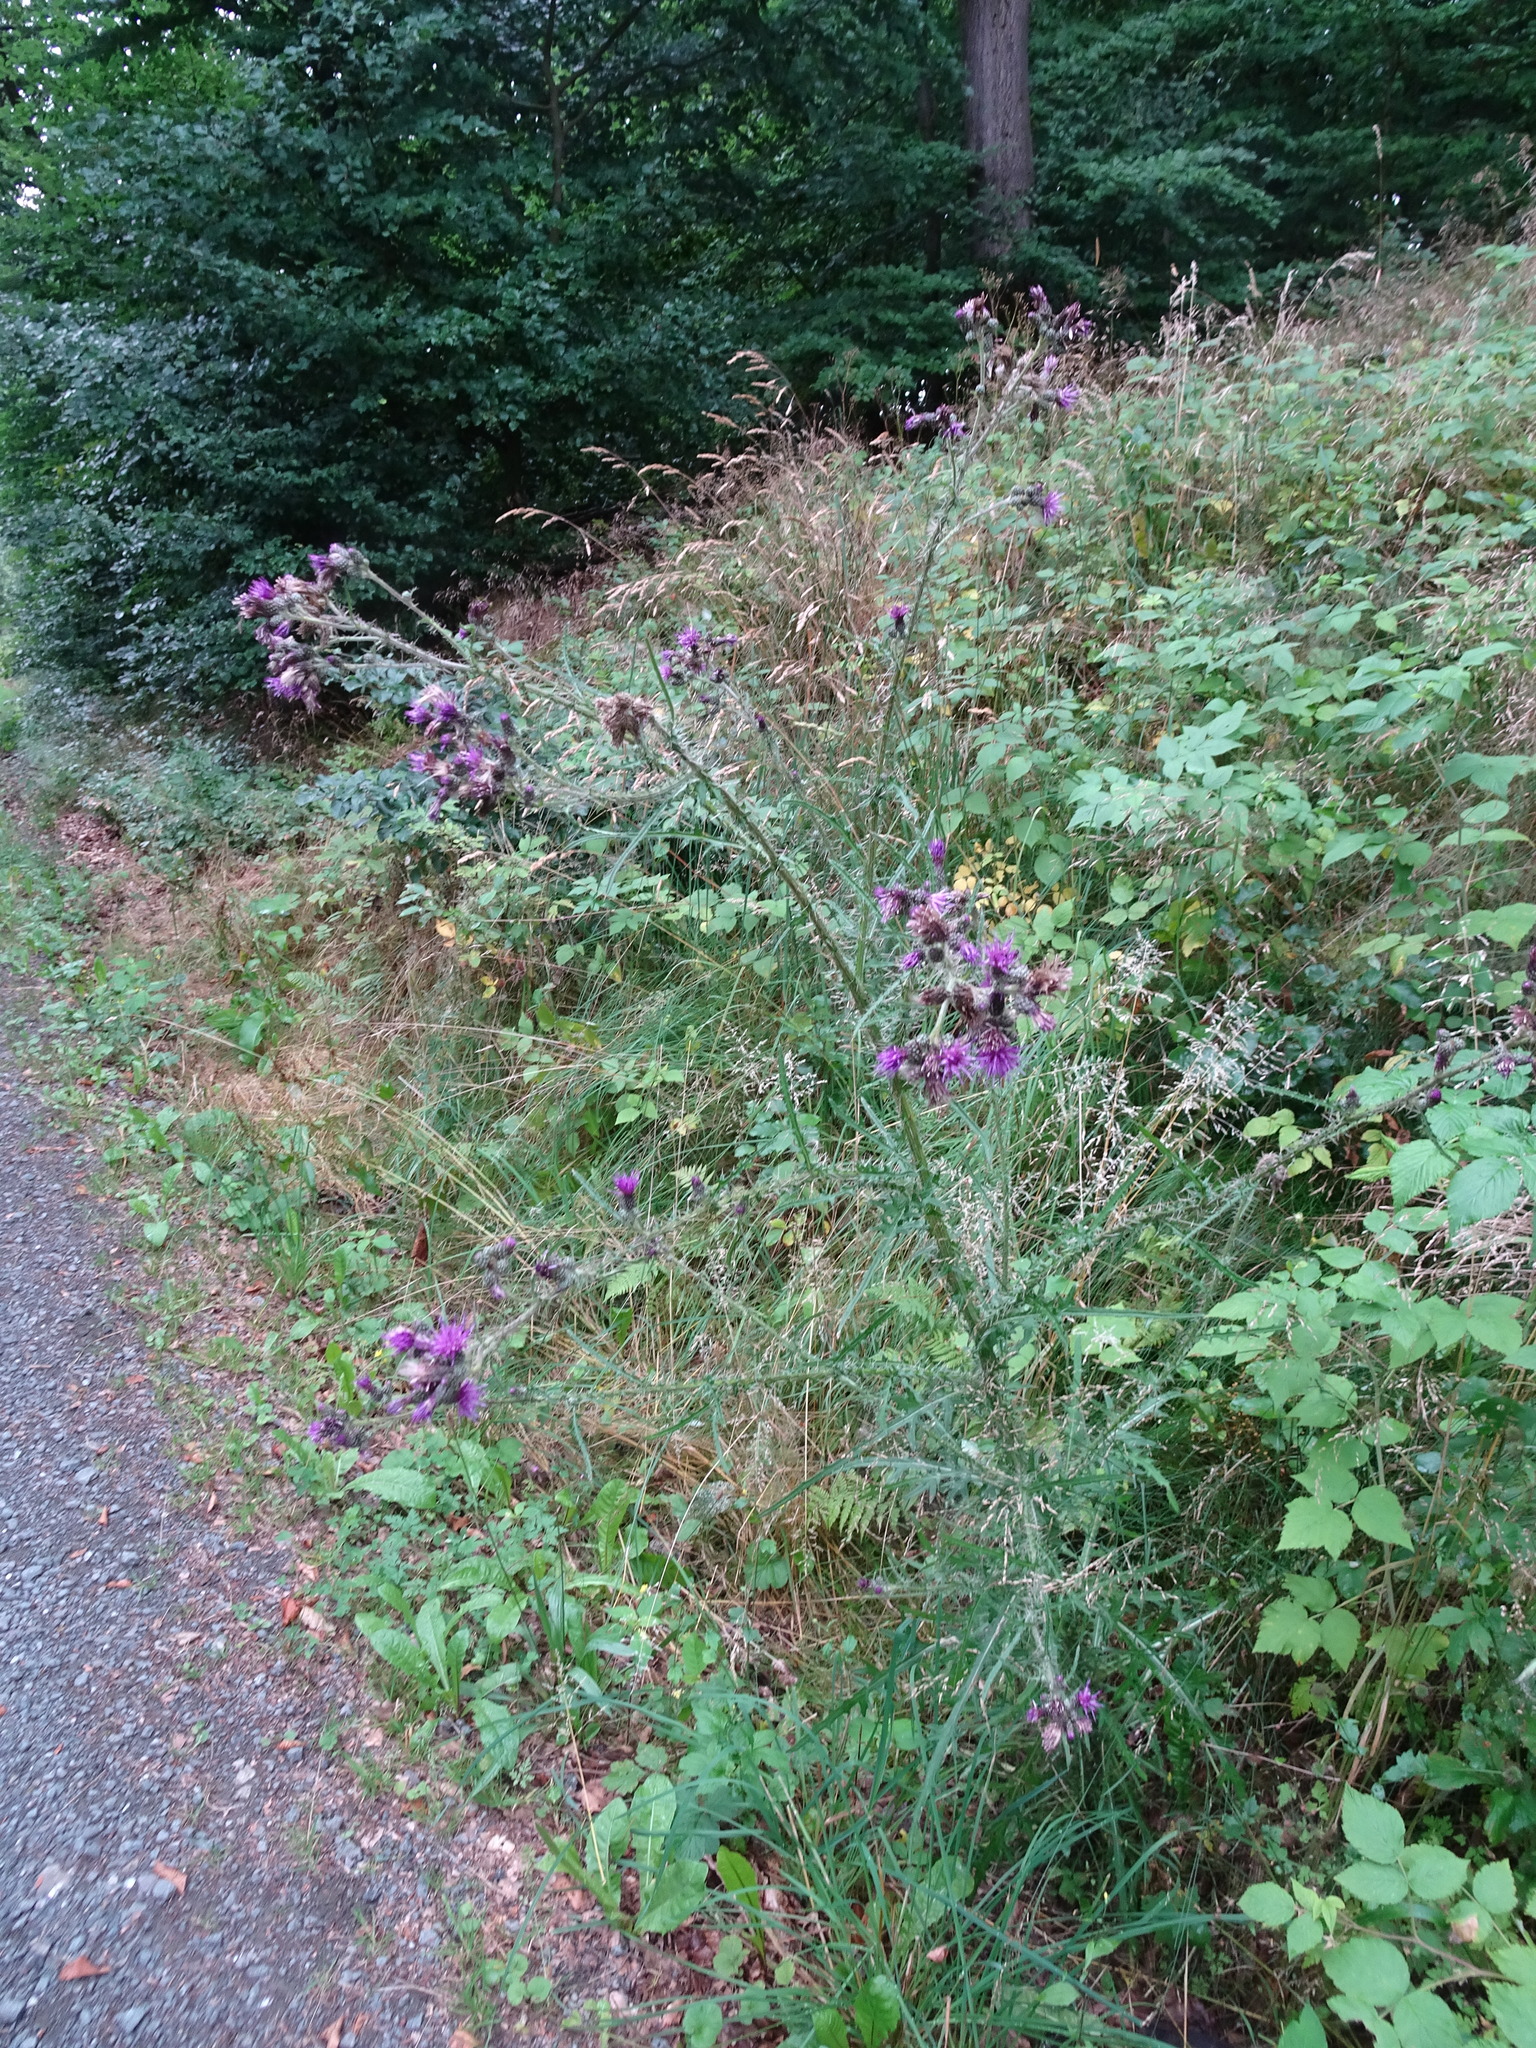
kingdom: Plantae
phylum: Tracheophyta
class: Magnoliopsida
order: Asterales
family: Asteraceae
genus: Cirsium
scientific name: Cirsium palustre
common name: Marsh thistle
